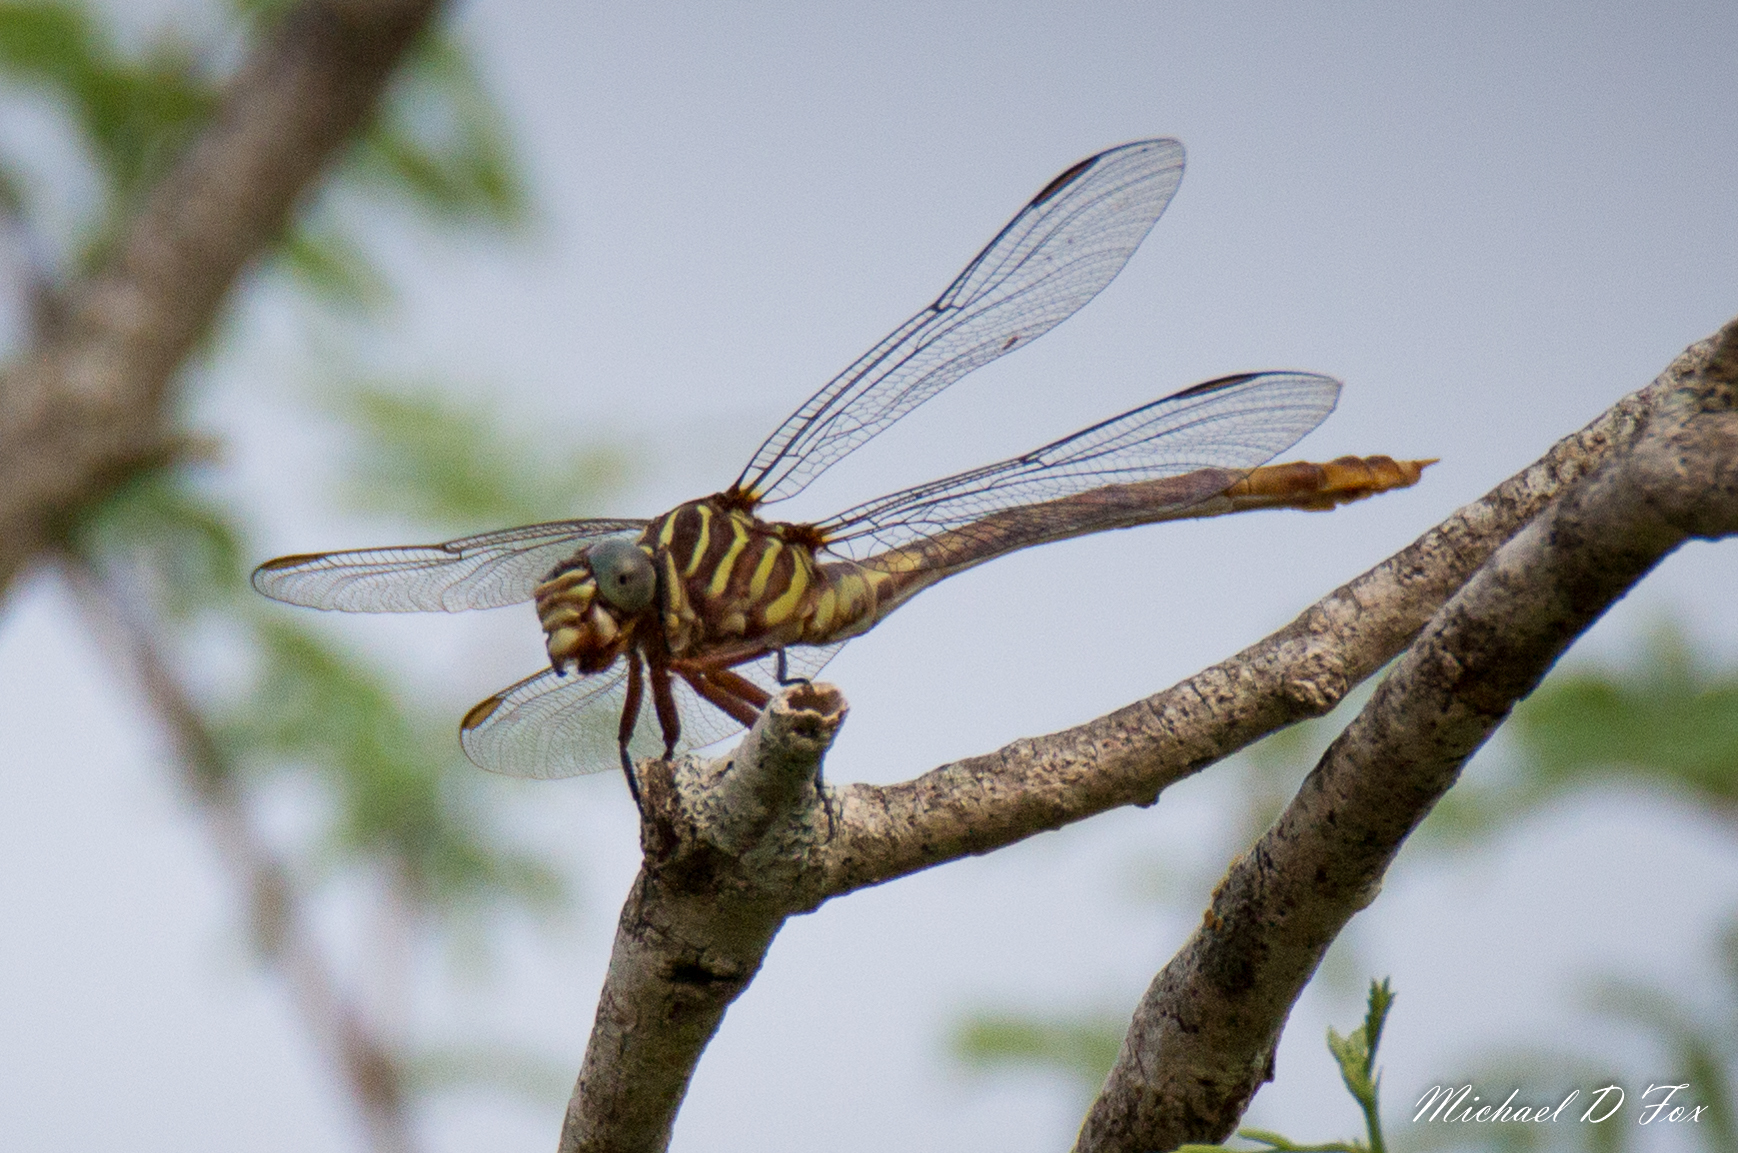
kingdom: Animalia
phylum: Arthropoda
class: Insecta
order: Odonata
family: Gomphidae
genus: Aphylla
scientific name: Aphylla protracta
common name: Narrow-striped forceptail
